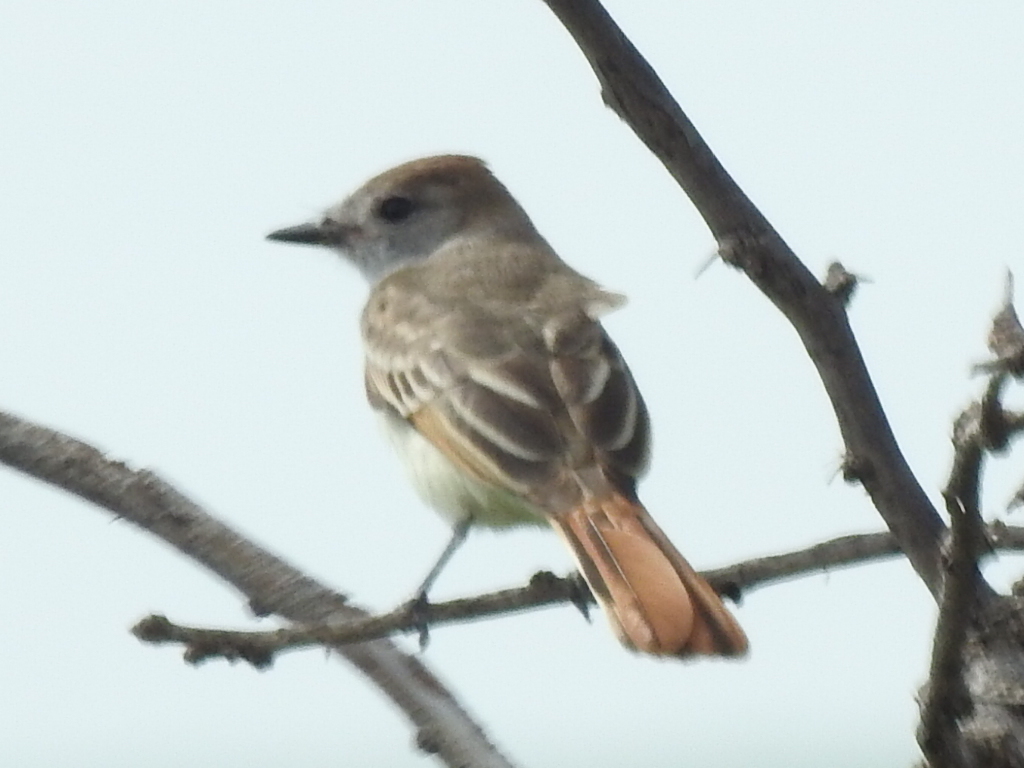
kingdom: Animalia
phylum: Chordata
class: Aves
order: Passeriformes
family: Tyrannidae
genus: Myiarchus
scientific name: Myiarchus cinerascens
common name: Ash-throated flycatcher
